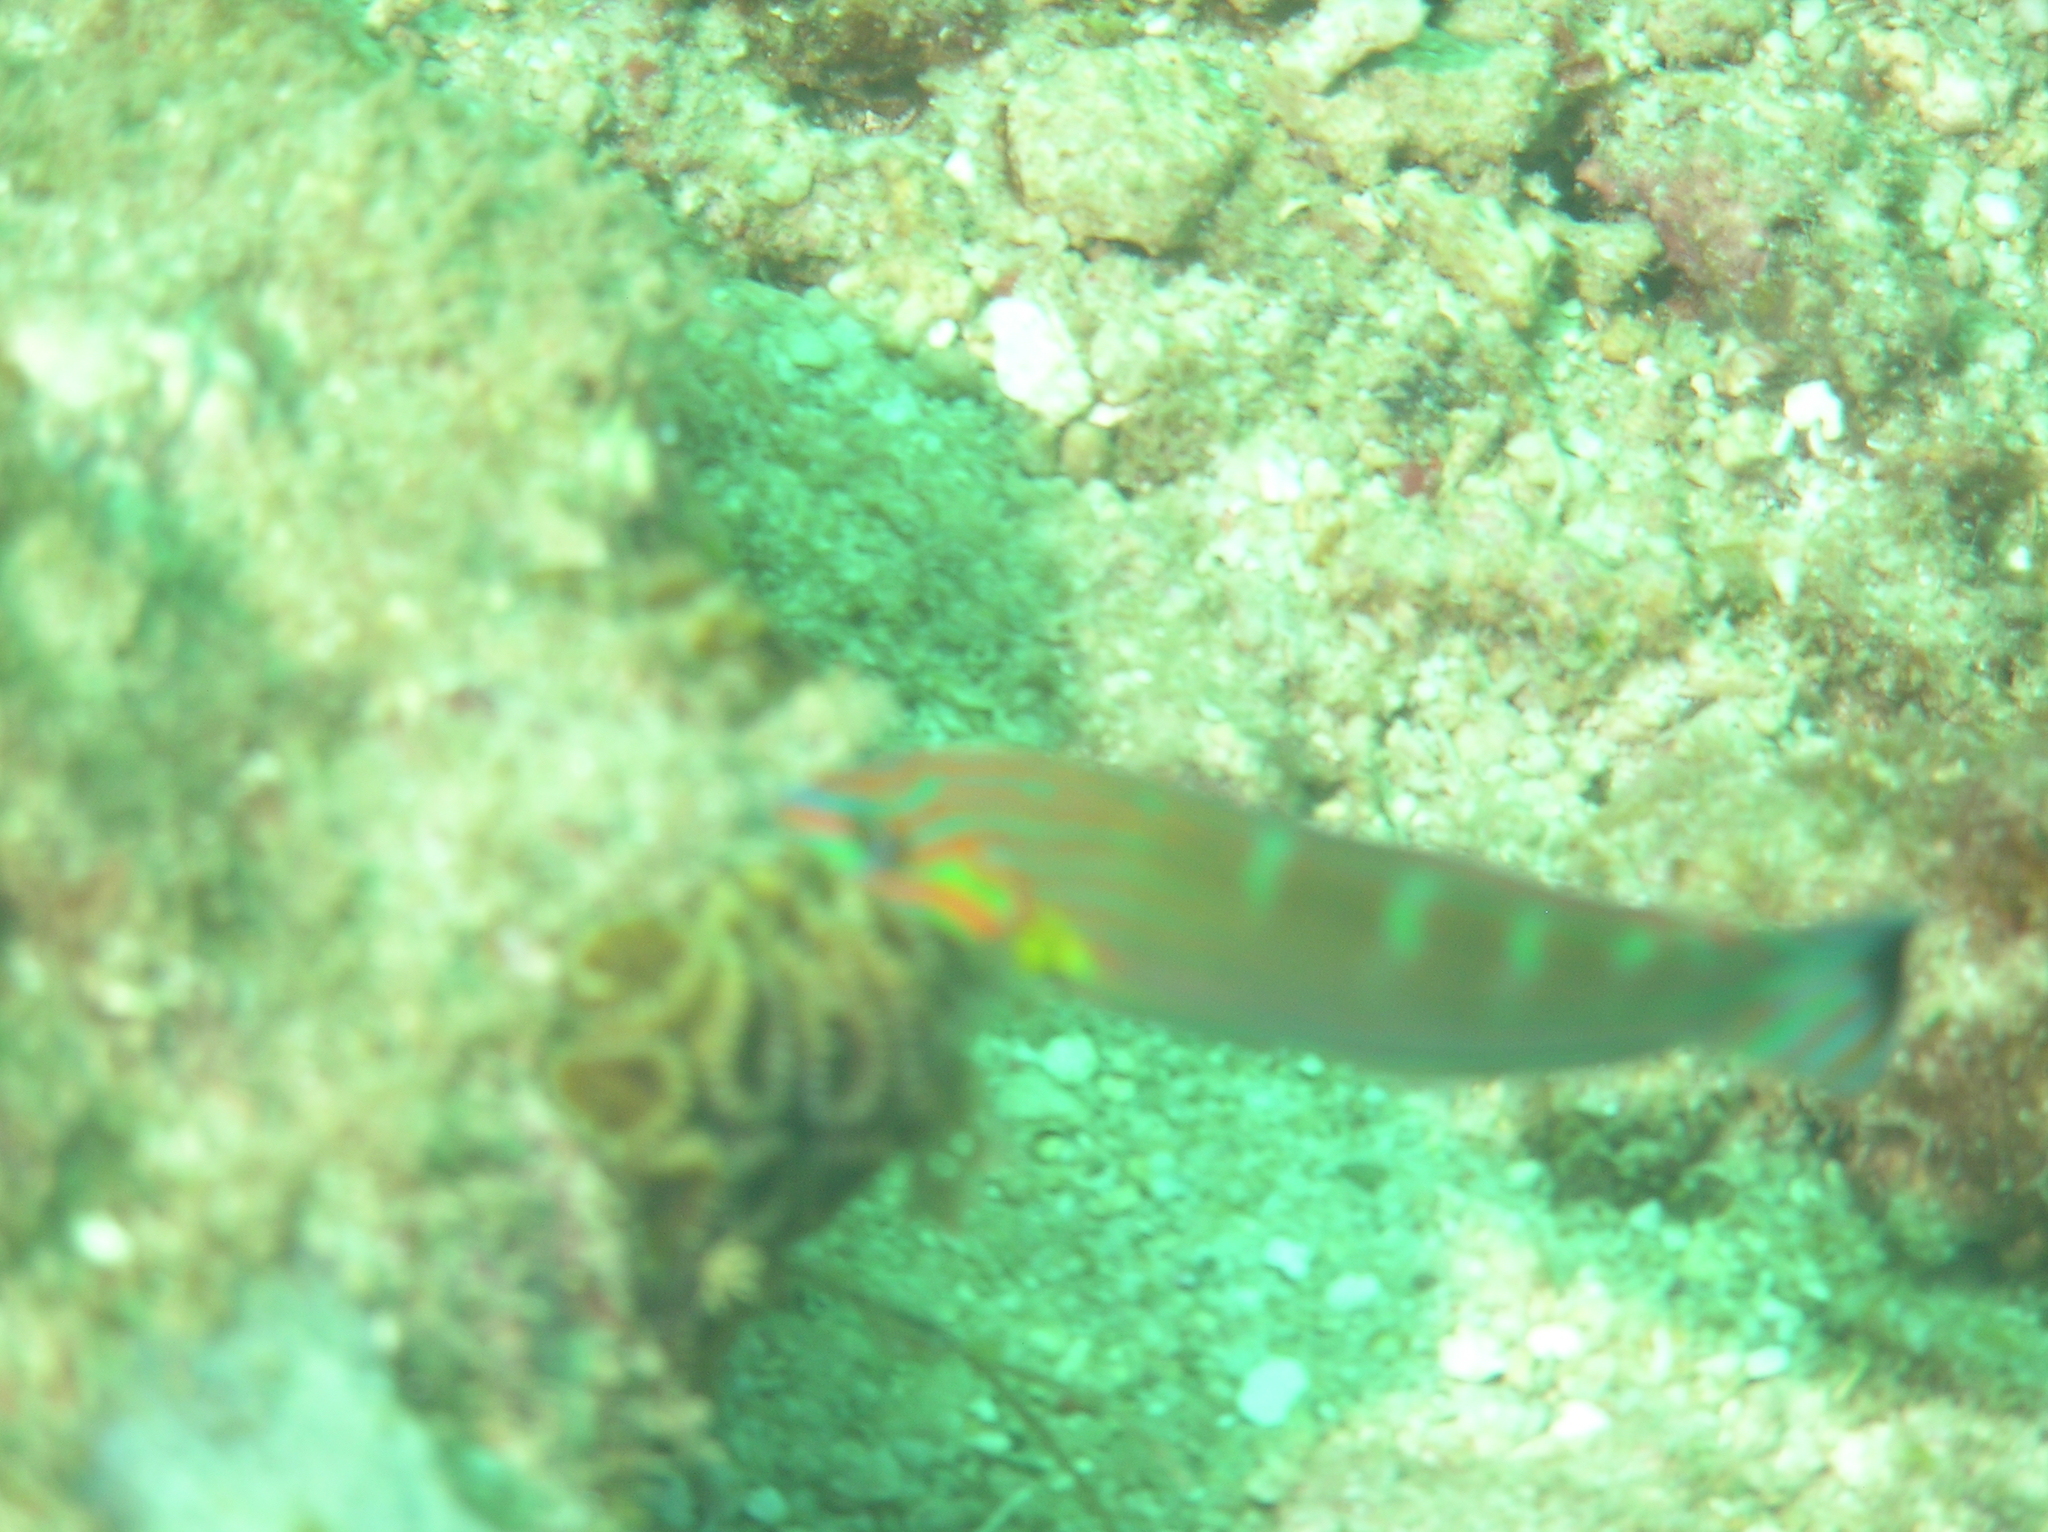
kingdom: Animalia
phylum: Chordata
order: Perciformes
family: Labridae
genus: Halichoeres
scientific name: Halichoeres melanurus
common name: Hoeven's wrasse
